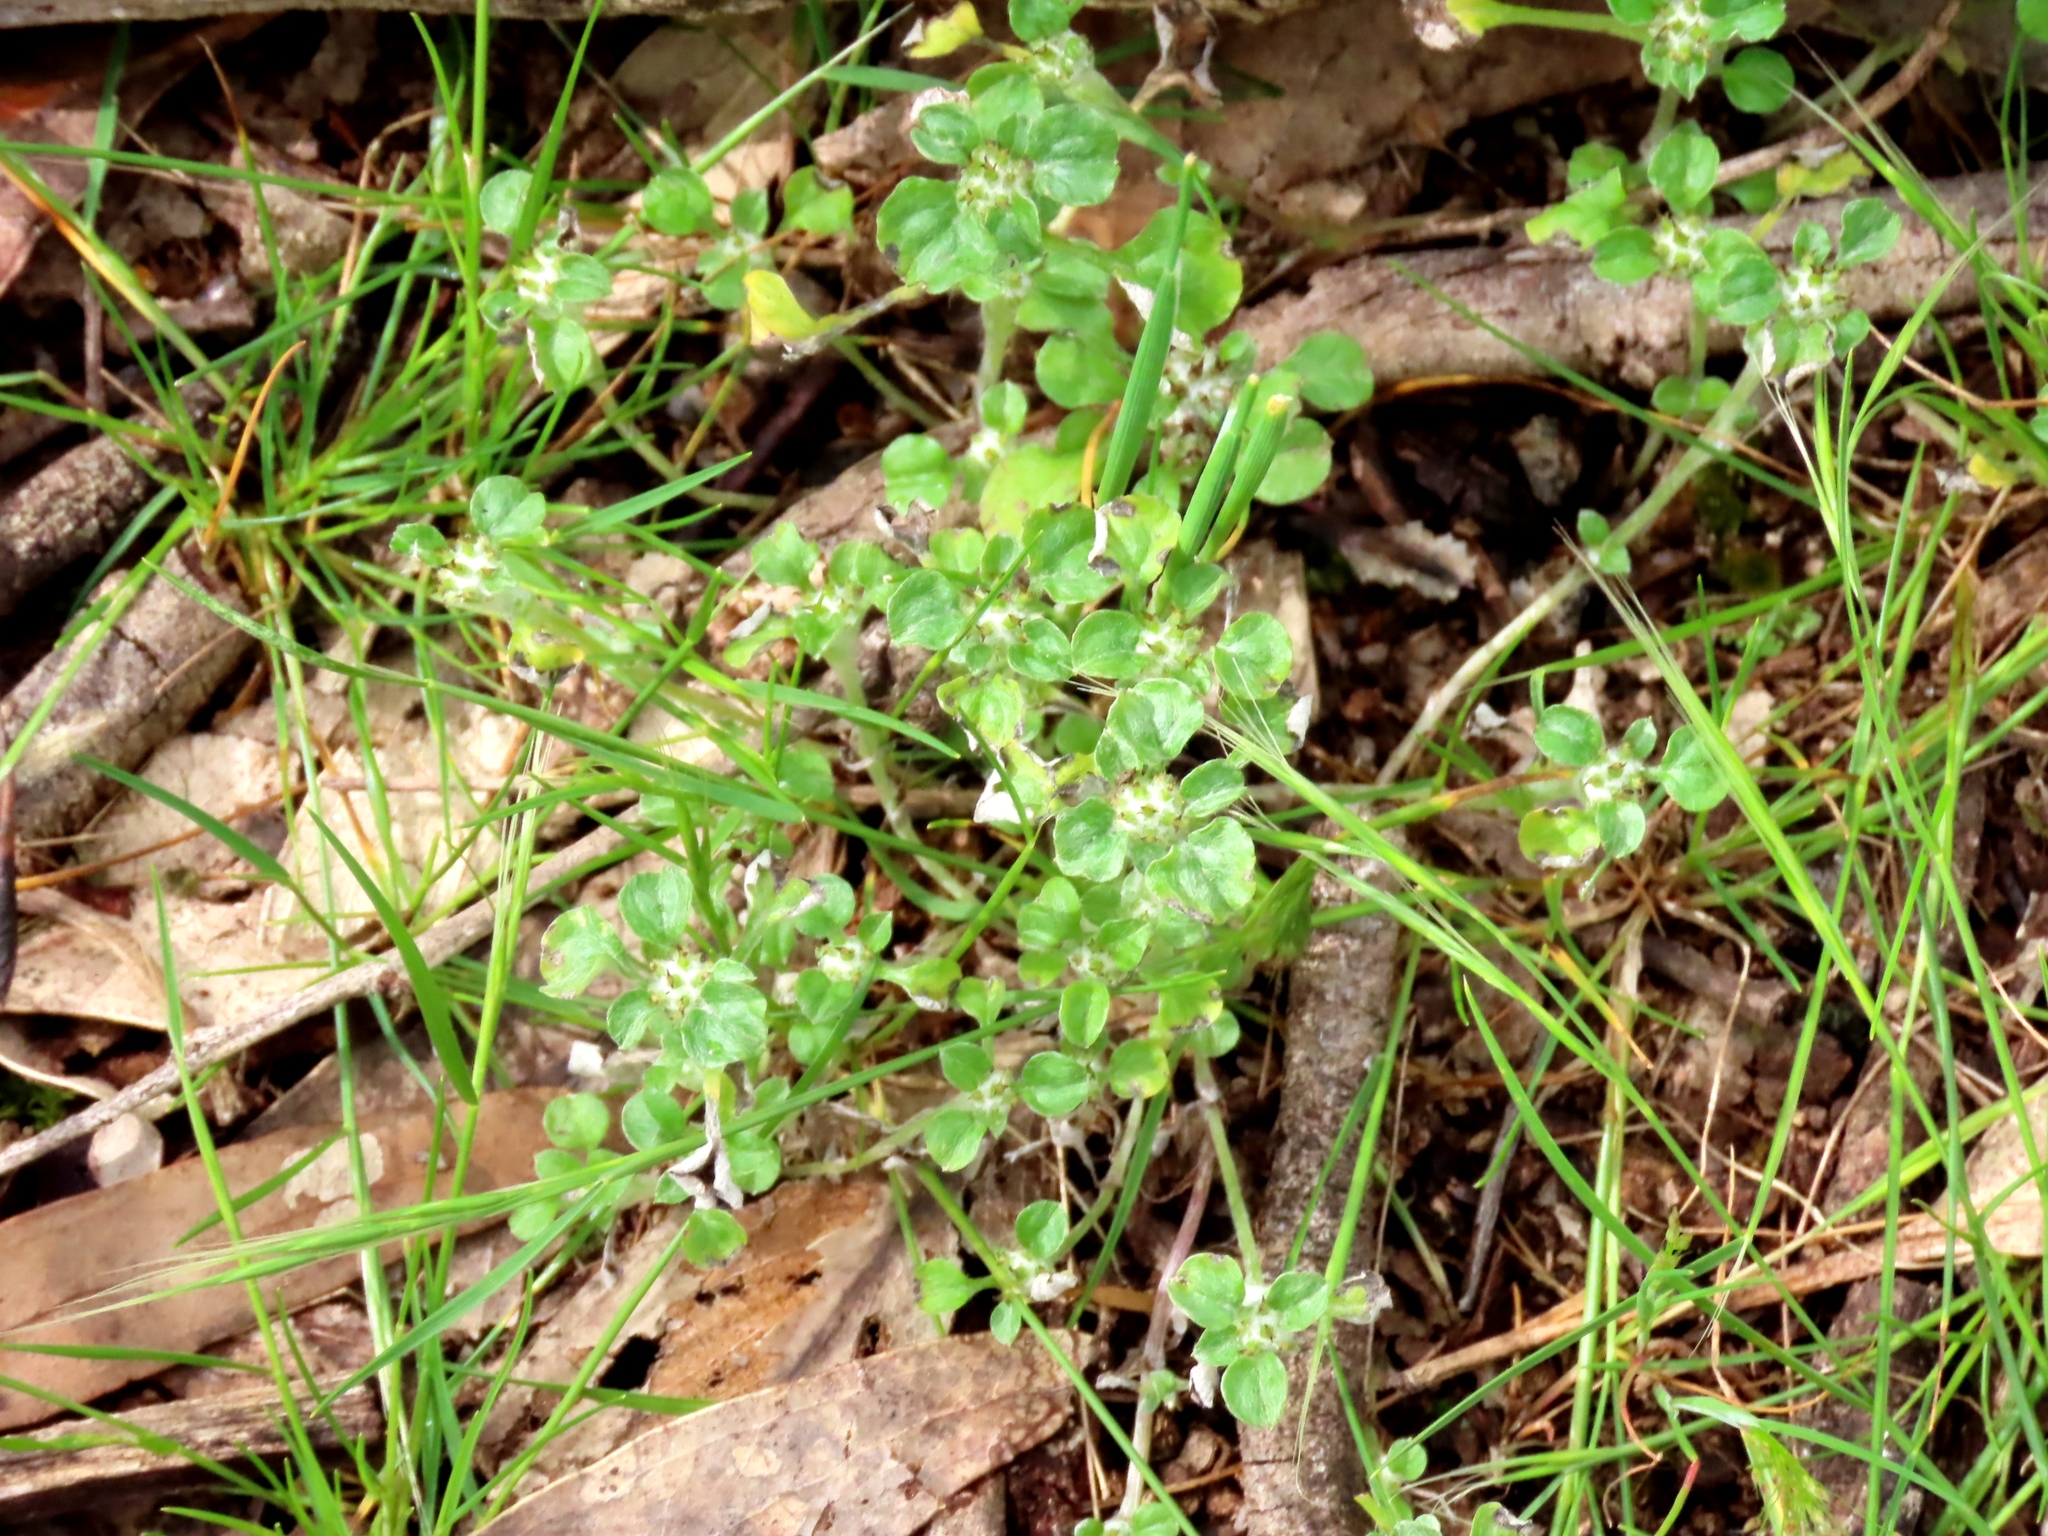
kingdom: Plantae
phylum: Tracheophyta
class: Magnoliopsida
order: Asterales
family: Asteraceae
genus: Stuartina
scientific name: Stuartina muelleri
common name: Spoon-leaved cudweed
